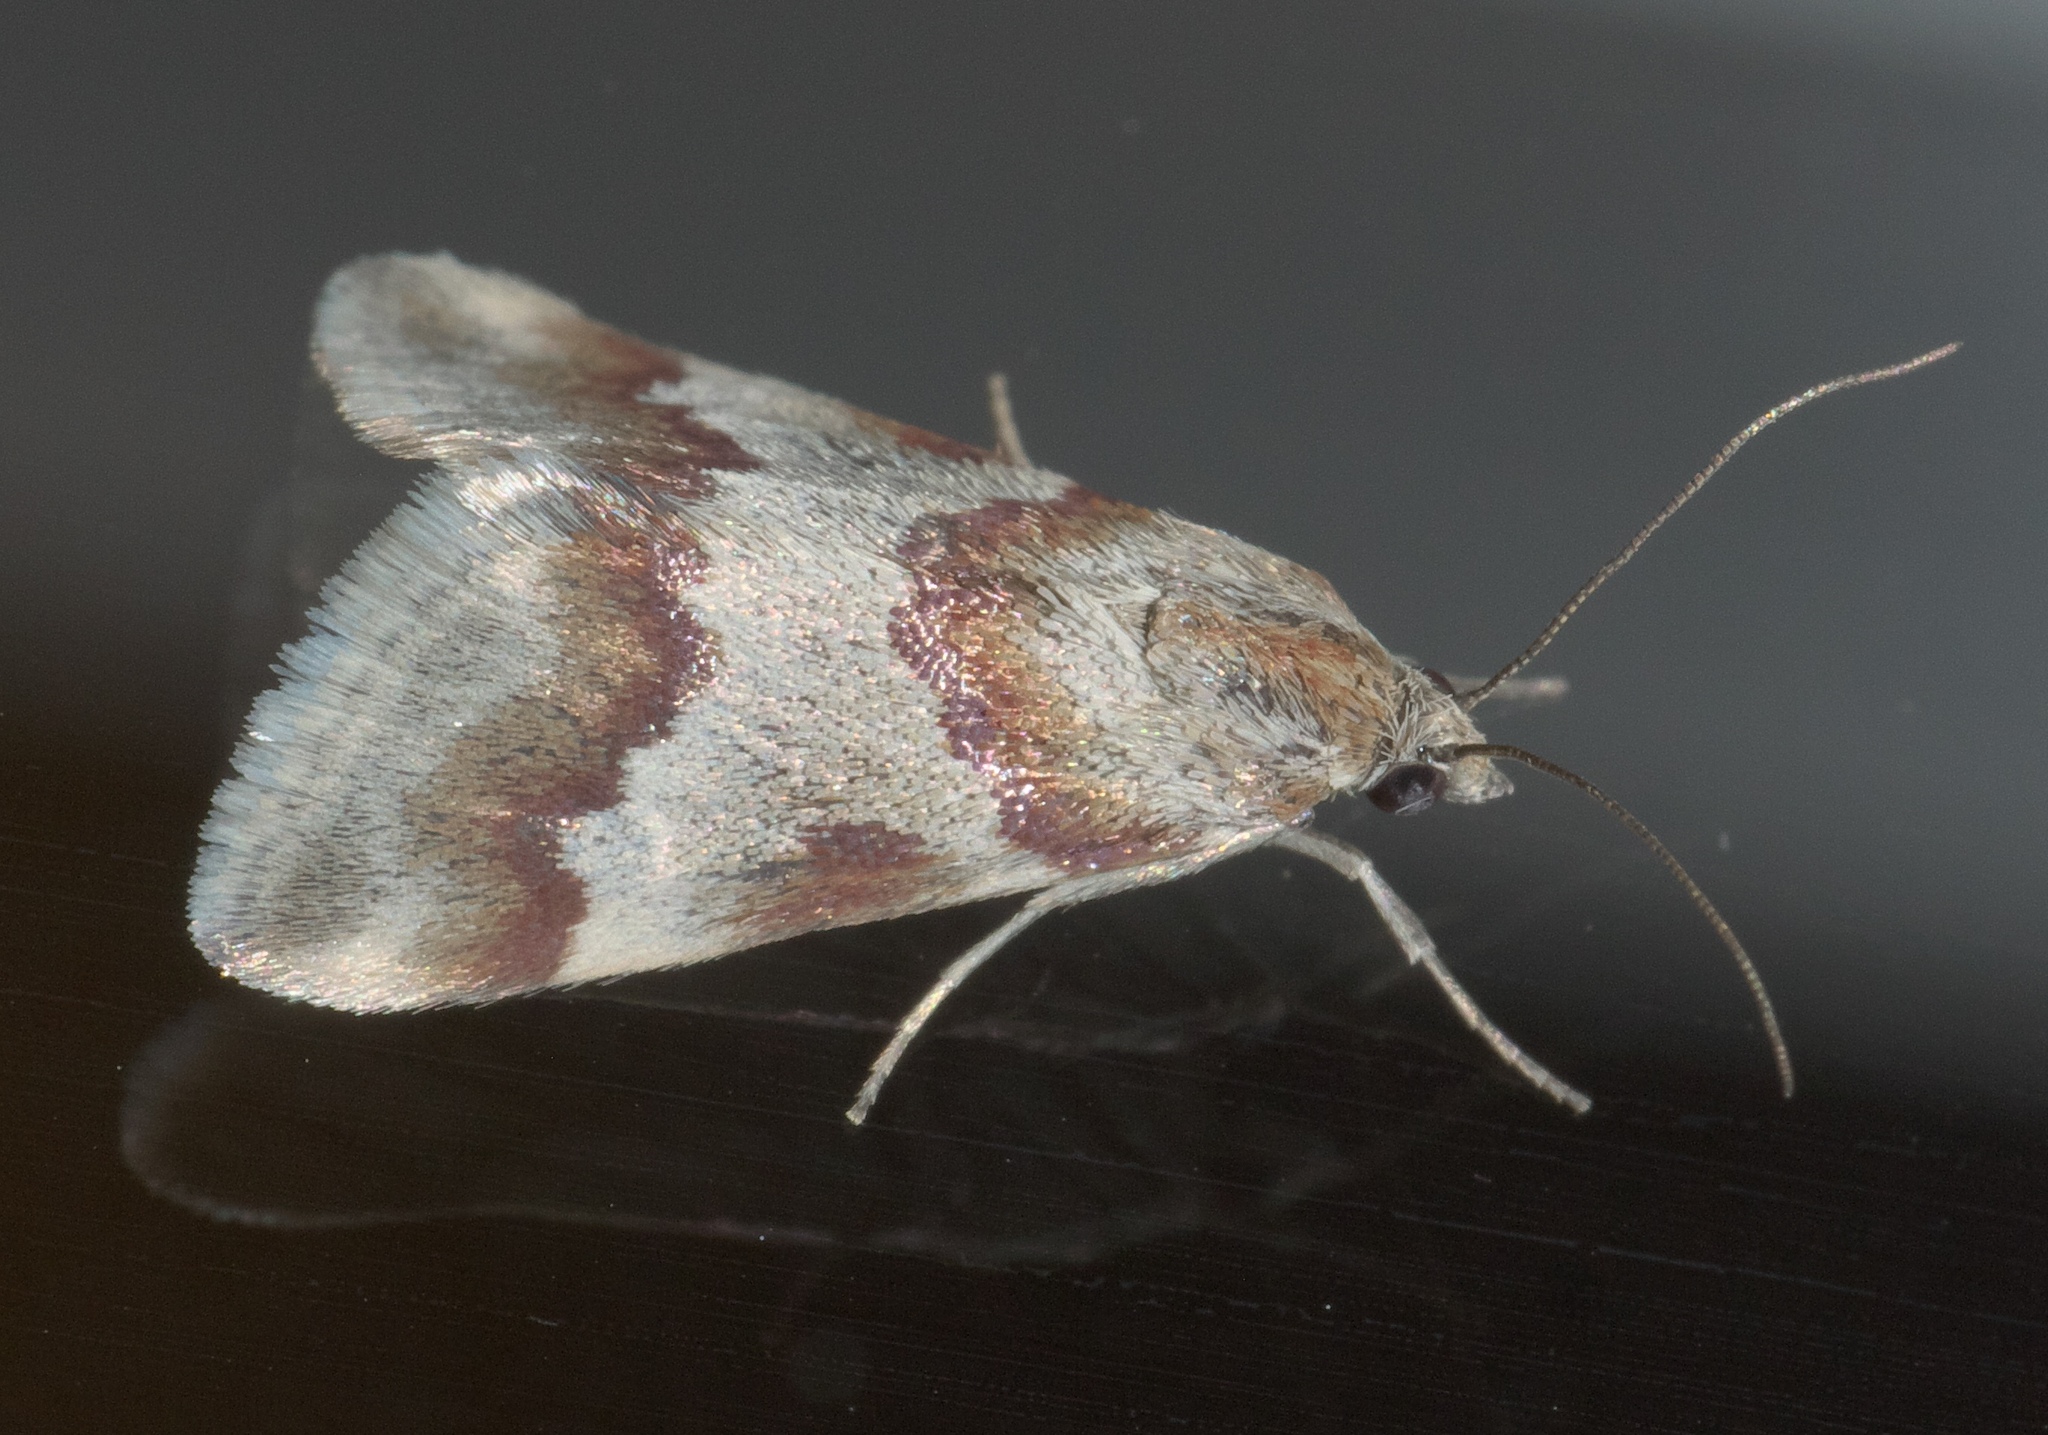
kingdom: Animalia
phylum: Arthropoda
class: Insecta
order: Lepidoptera
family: Crambidae
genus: Noctuelia
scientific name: Noctuelia Mimoschinia rufofascialis
